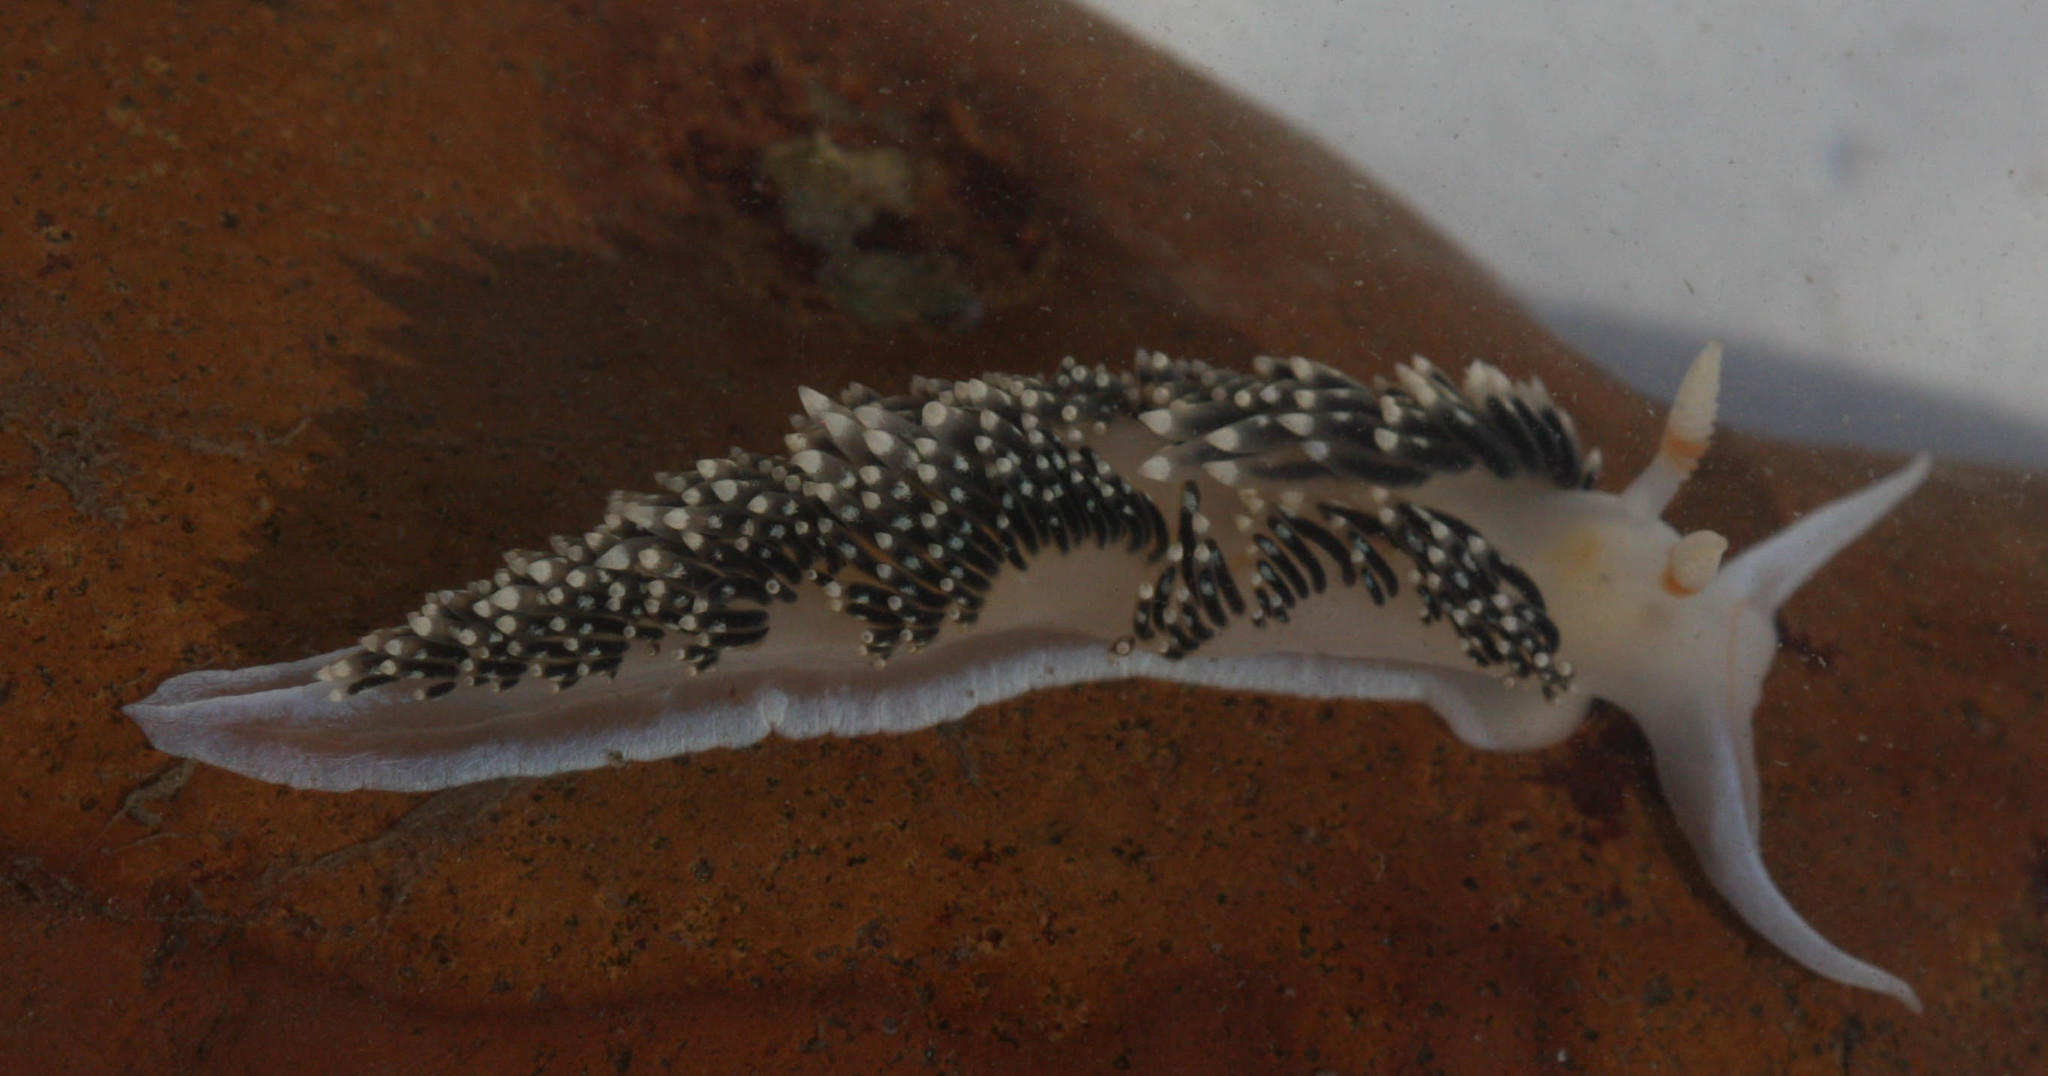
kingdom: Animalia
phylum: Mollusca
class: Gastropoda
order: Nudibranchia
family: Facelinidae
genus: Phidiana
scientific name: Phidiana hiltoni
